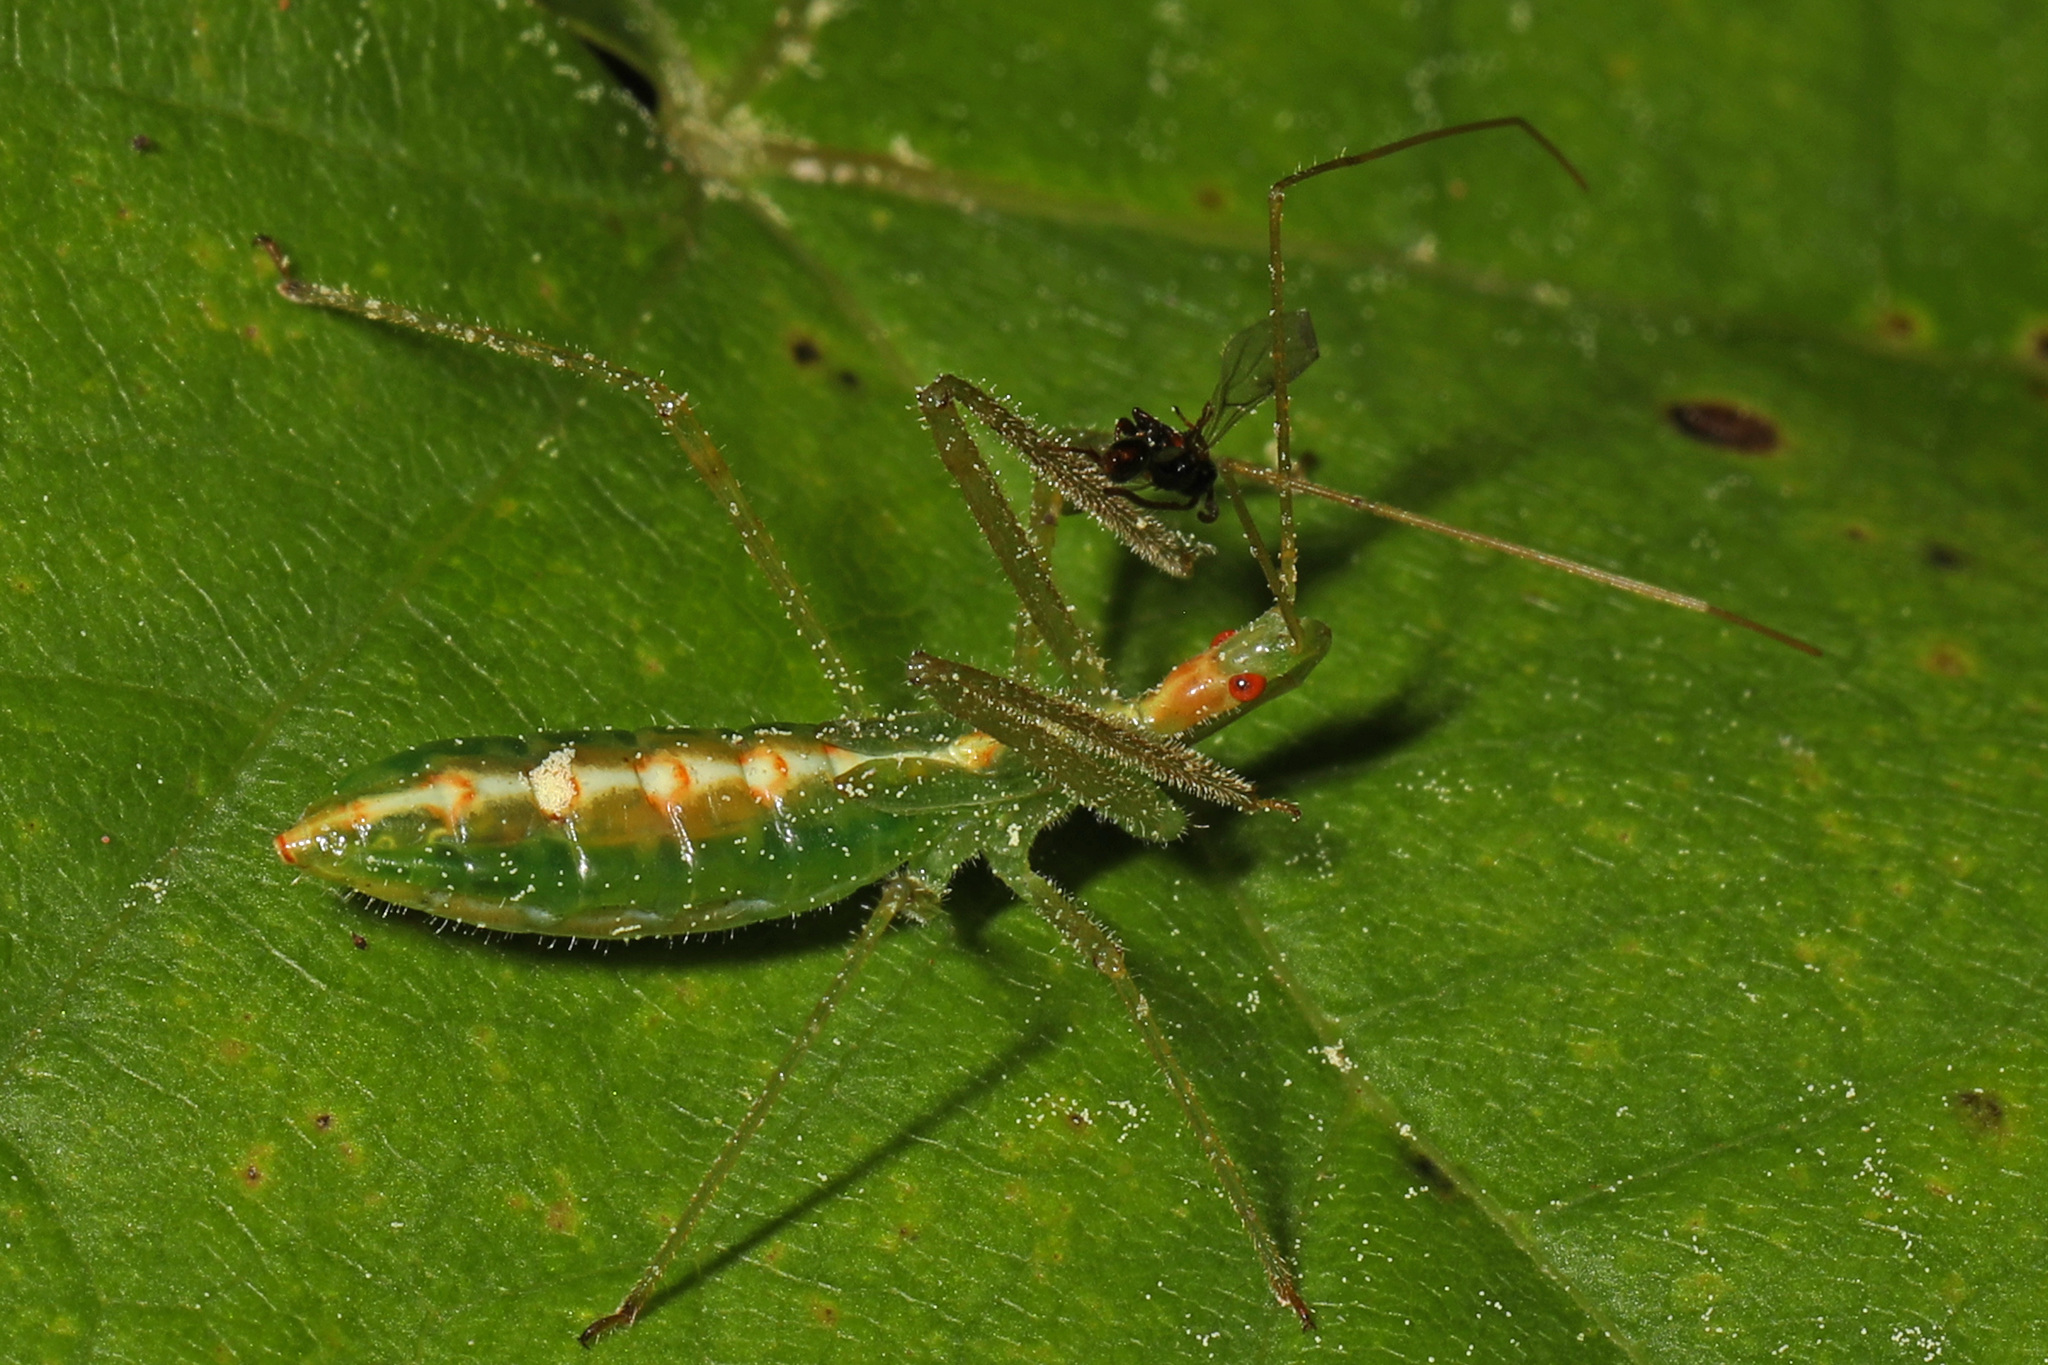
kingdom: Animalia
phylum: Arthropoda
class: Insecta
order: Hemiptera
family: Reduviidae
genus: Zelus
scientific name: Zelus luridus
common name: Pale green assassin bug
